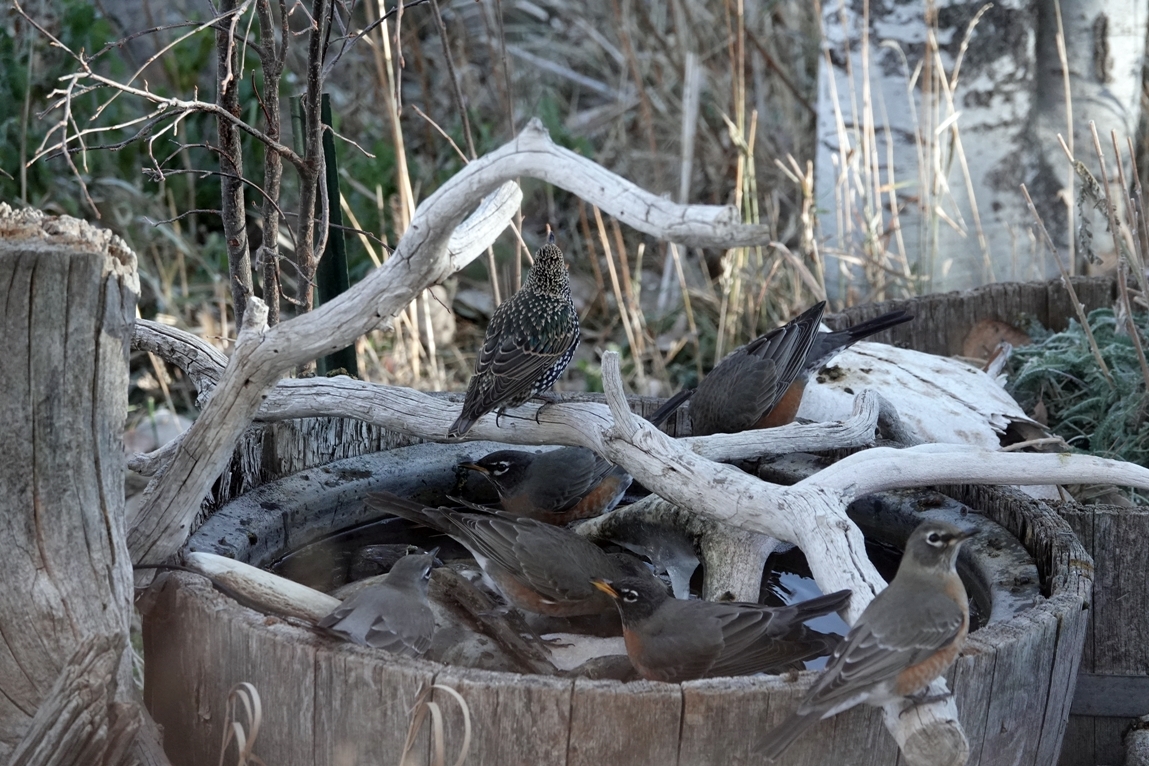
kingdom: Animalia
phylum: Chordata
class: Aves
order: Passeriformes
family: Sturnidae
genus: Sturnus
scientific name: Sturnus vulgaris
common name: Common starling
